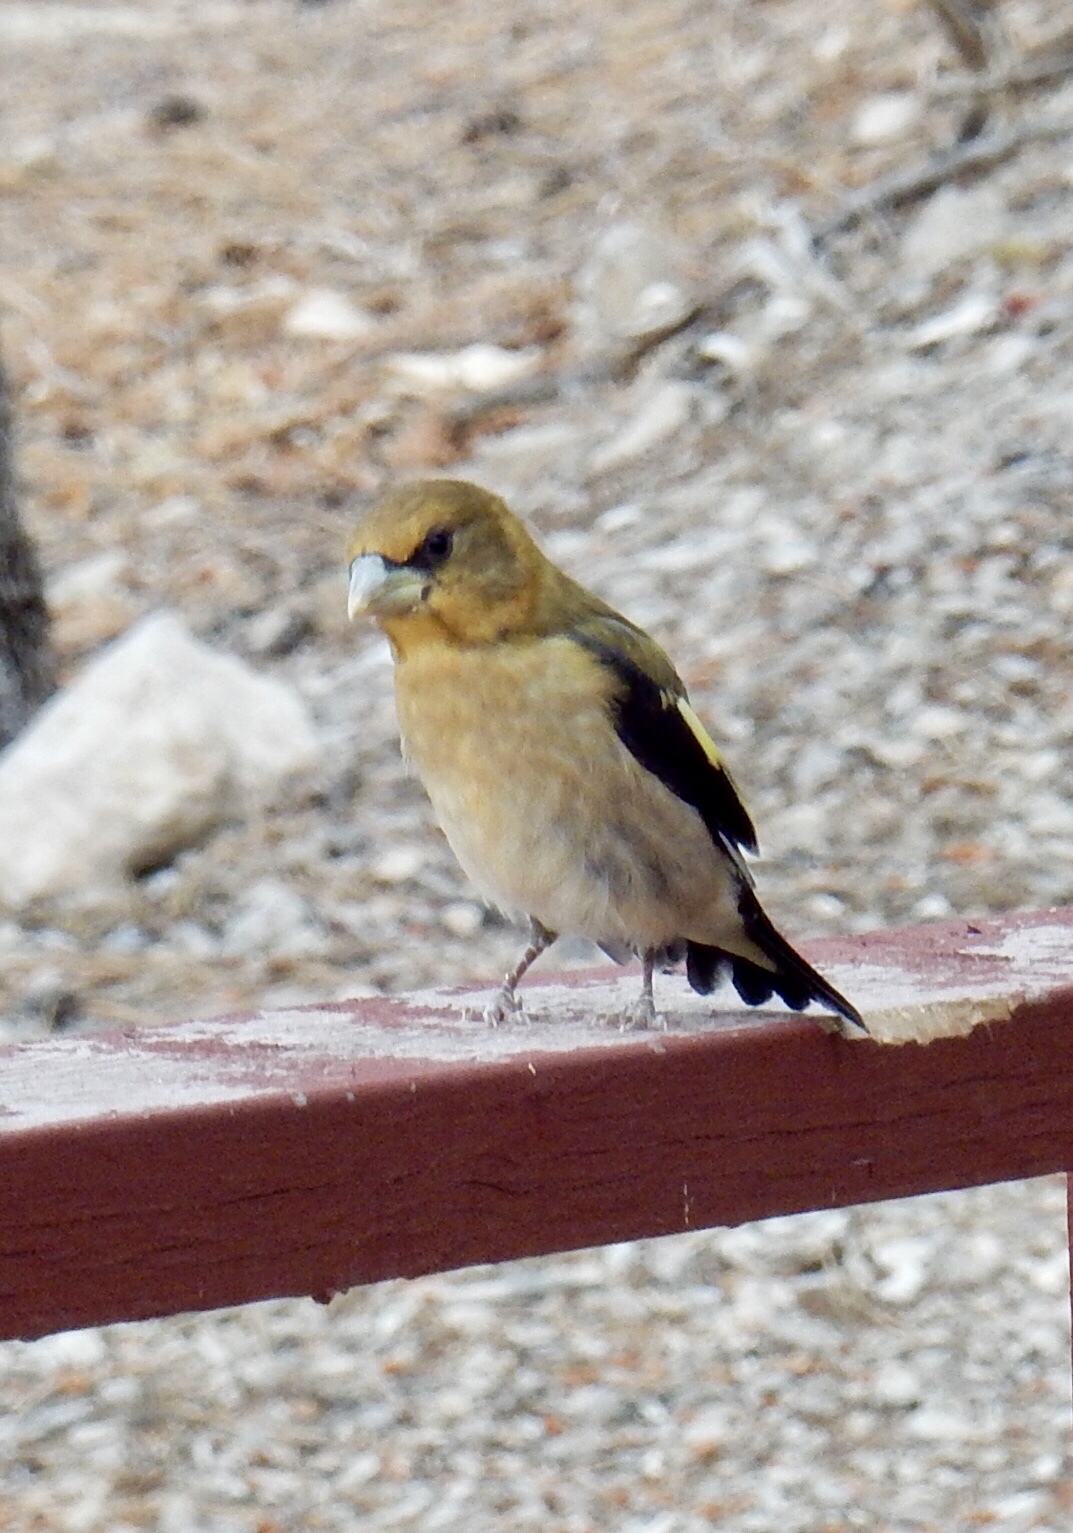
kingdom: Animalia
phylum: Chordata
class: Aves
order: Passeriformes
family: Fringillidae
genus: Hesperiphona
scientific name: Hesperiphona vespertina
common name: Evening grosbeak
